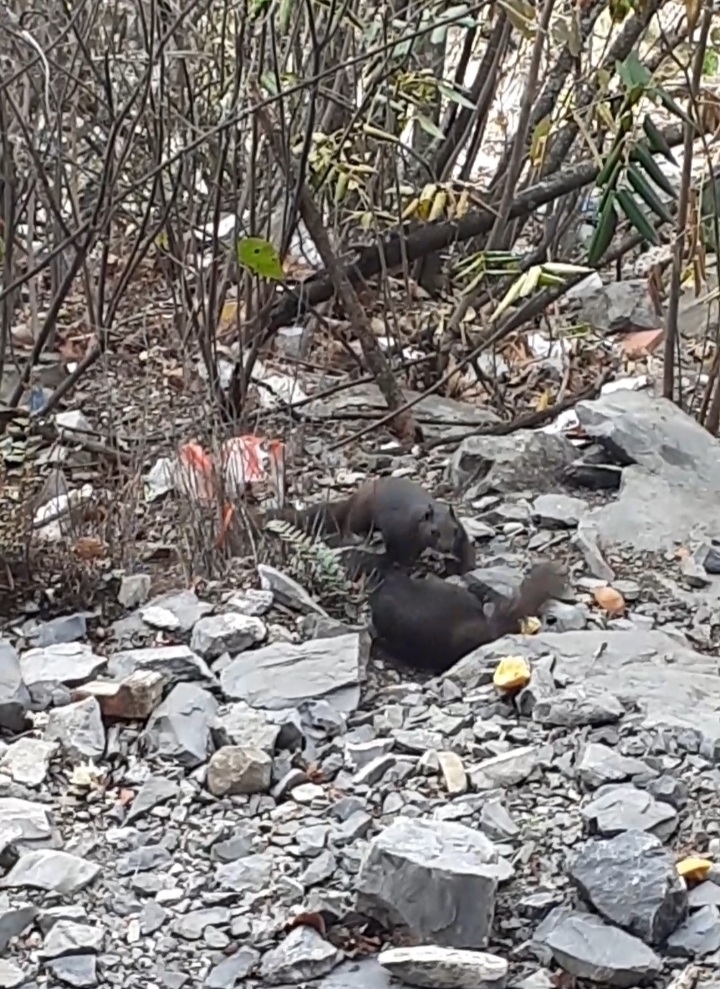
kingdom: Animalia
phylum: Chordata
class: Mammalia
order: Rodentia
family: Sciuridae
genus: Otospermophilus
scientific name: Otospermophilus variegatus
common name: Rock squirrel
